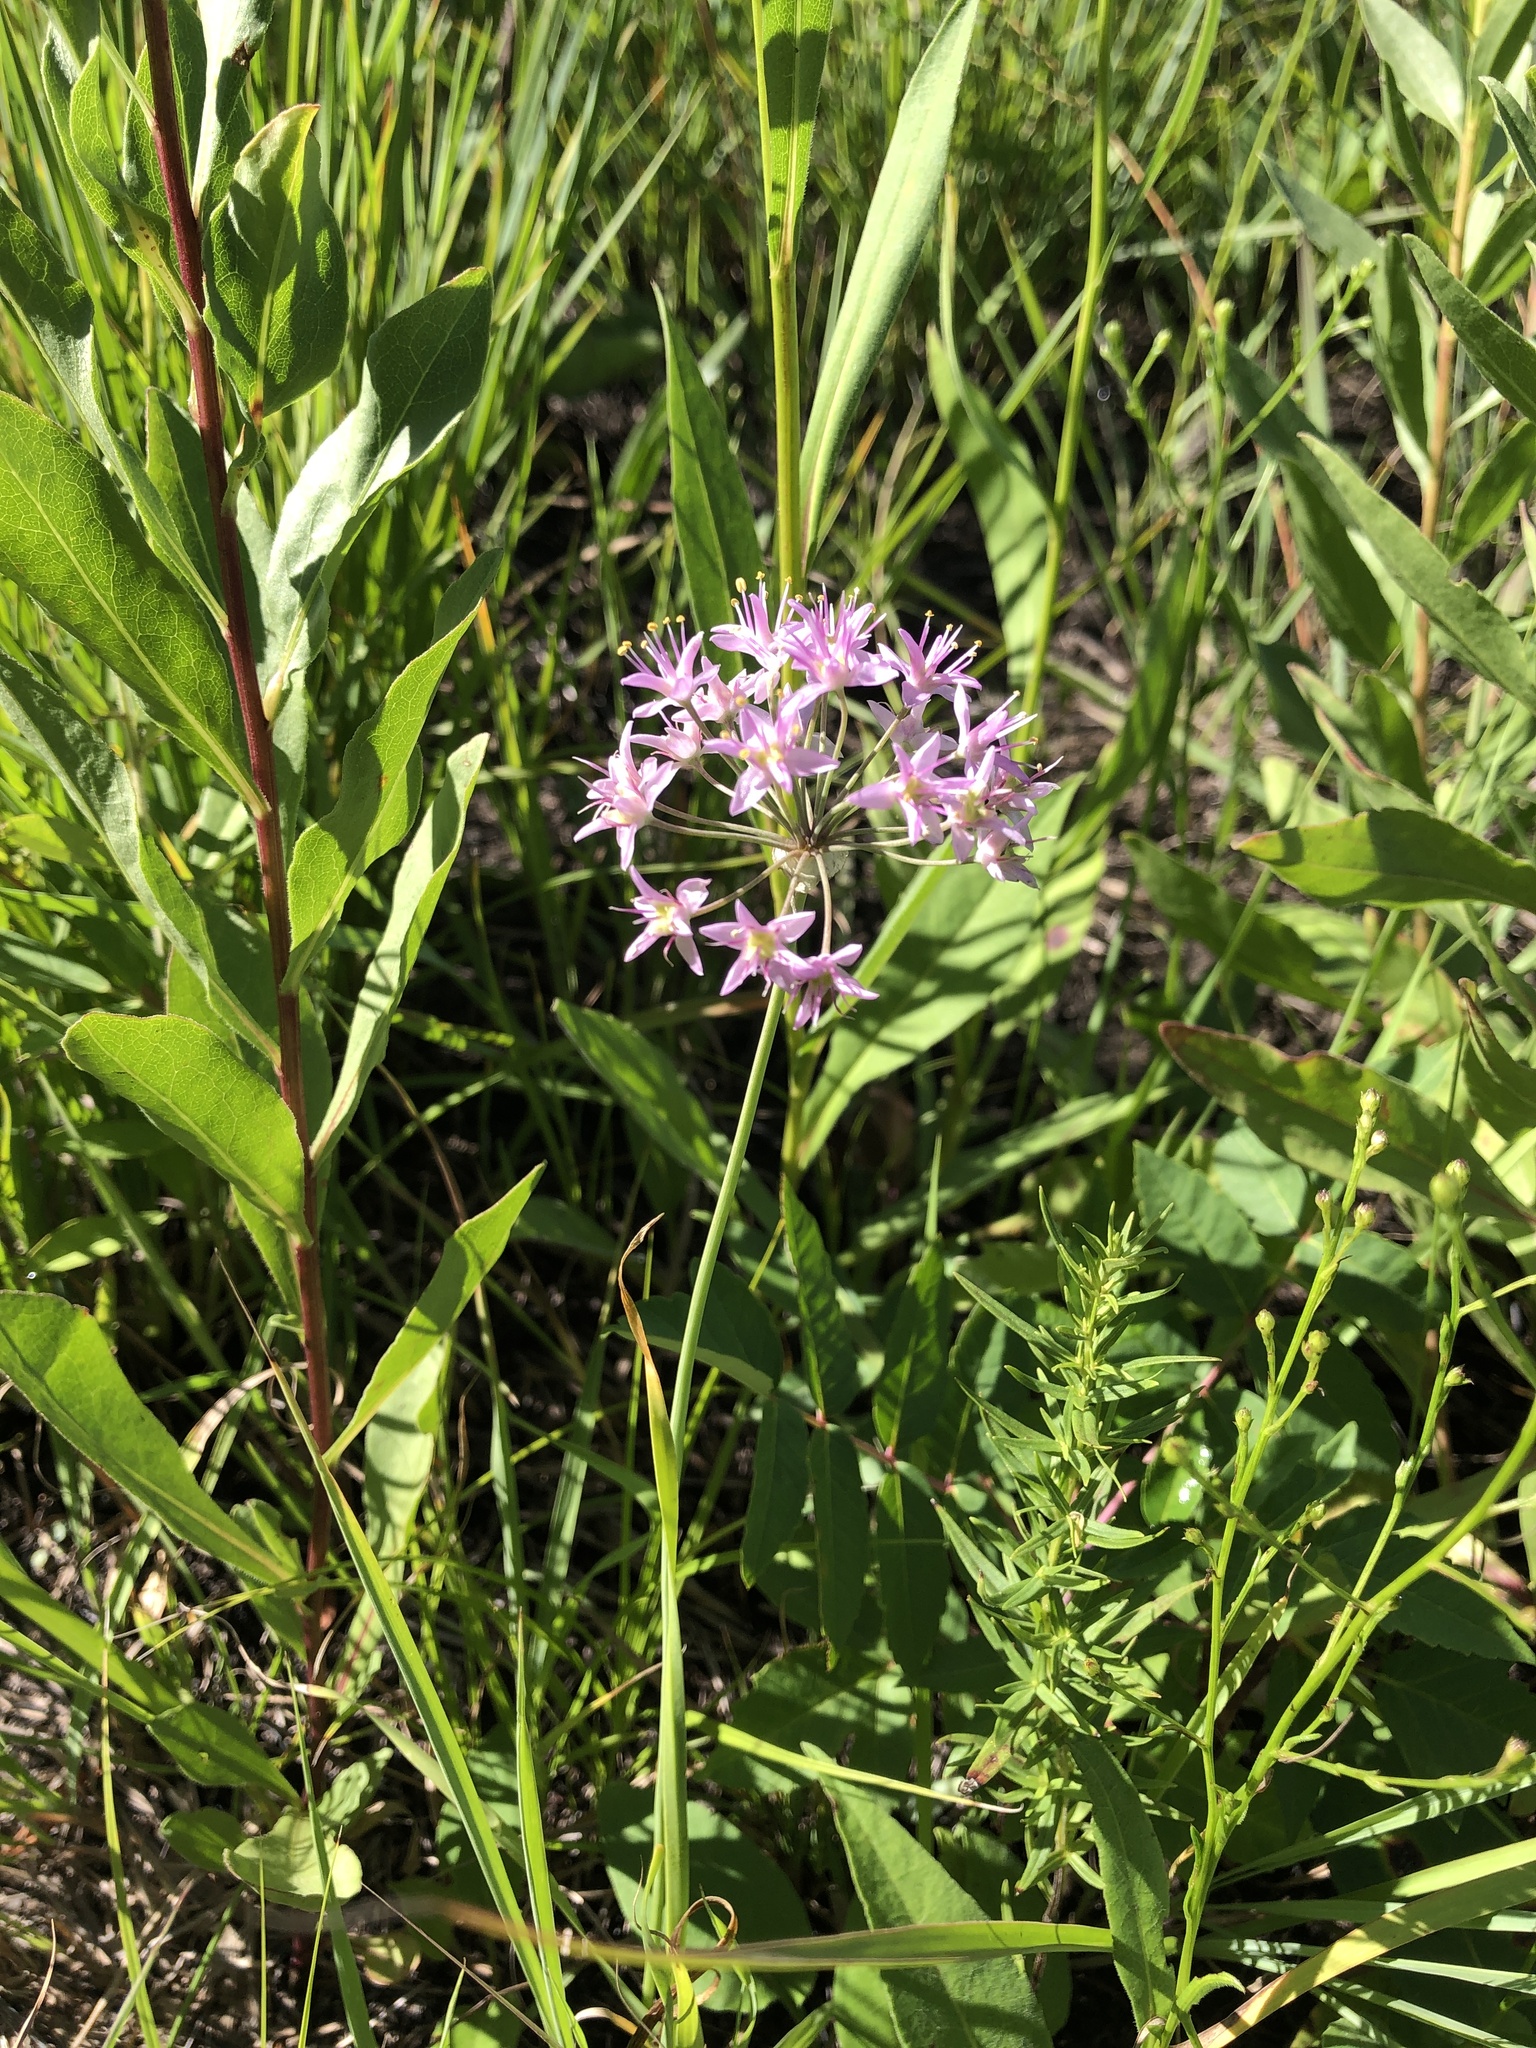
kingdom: Plantae
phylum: Tracheophyta
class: Liliopsida
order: Asparagales
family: Amaryllidaceae
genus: Allium
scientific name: Allium stellatum
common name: Autumn onion
